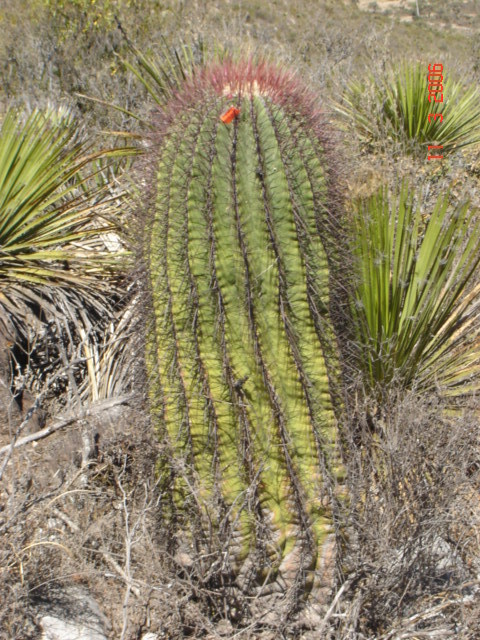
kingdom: Plantae
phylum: Tracheophyta
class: Magnoliopsida
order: Caryophyllales
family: Cactaceae
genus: Ferocactus
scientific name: Ferocactus haematacanthus
